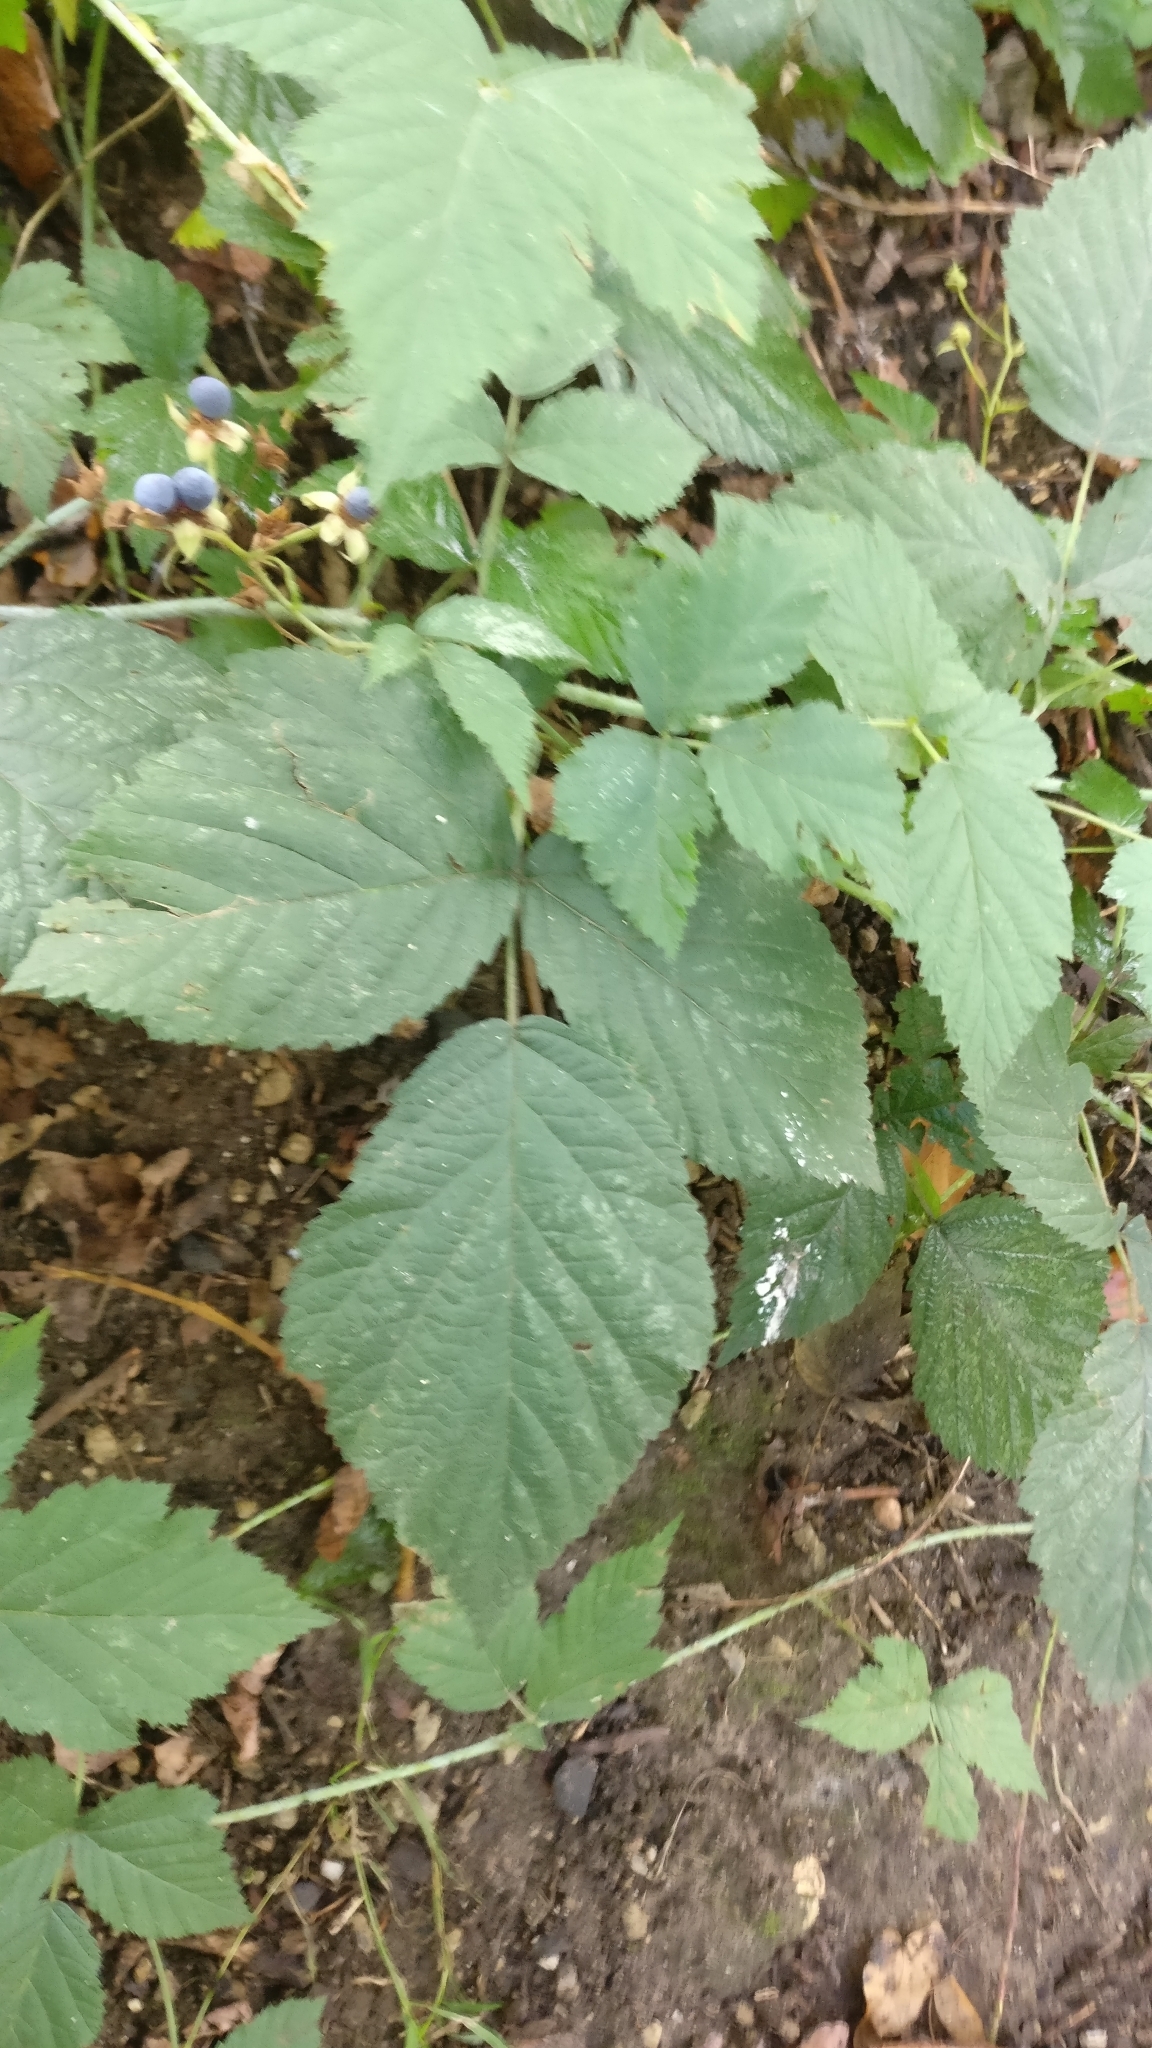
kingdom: Plantae
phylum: Tracheophyta
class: Magnoliopsida
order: Rosales
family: Rosaceae
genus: Rubus
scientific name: Rubus caesius
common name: Dewberry
